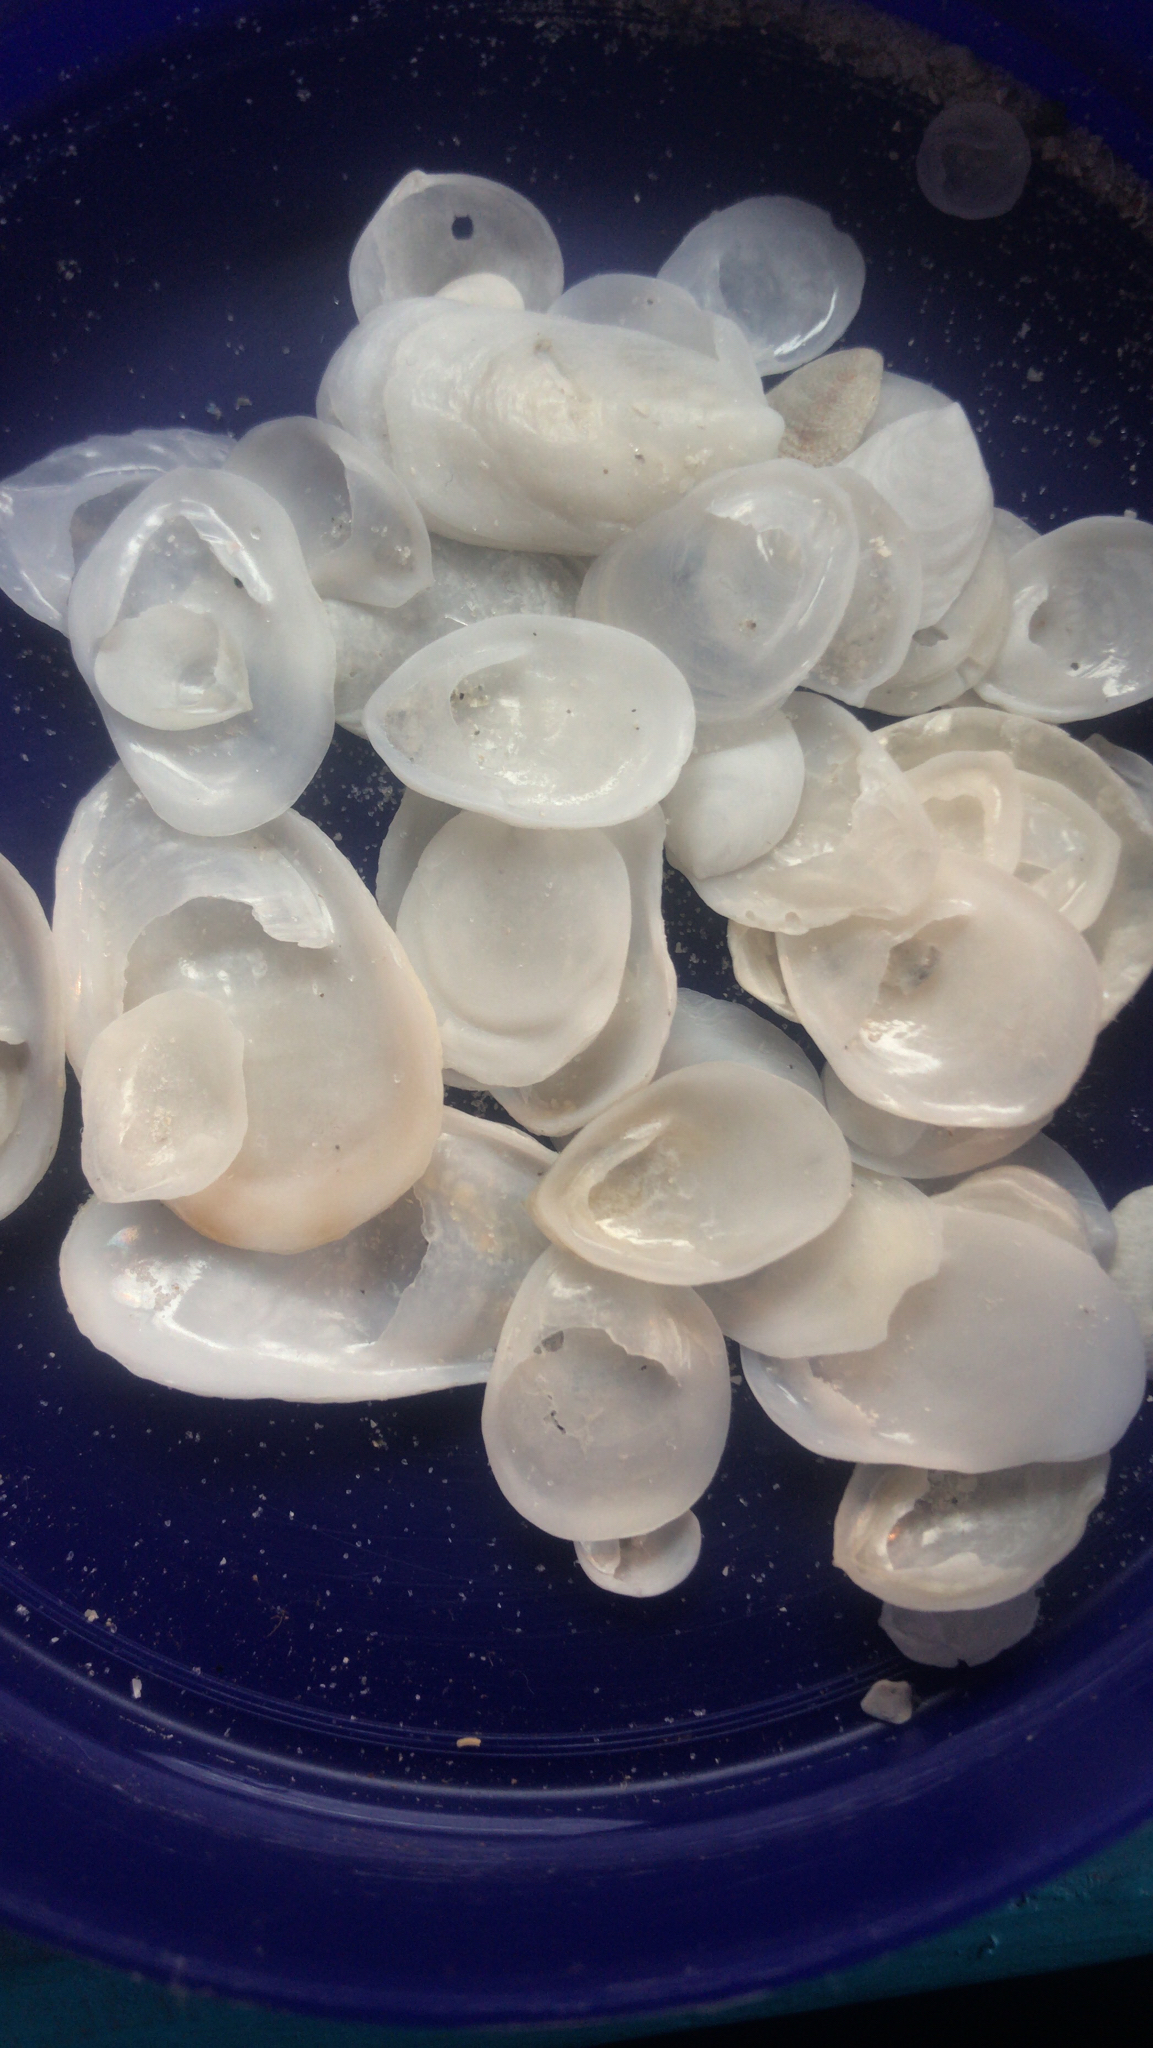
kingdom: Animalia
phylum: Mollusca
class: Gastropoda
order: Littorinimorpha
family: Calyptraeidae
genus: Crepidula
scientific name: Crepidula
